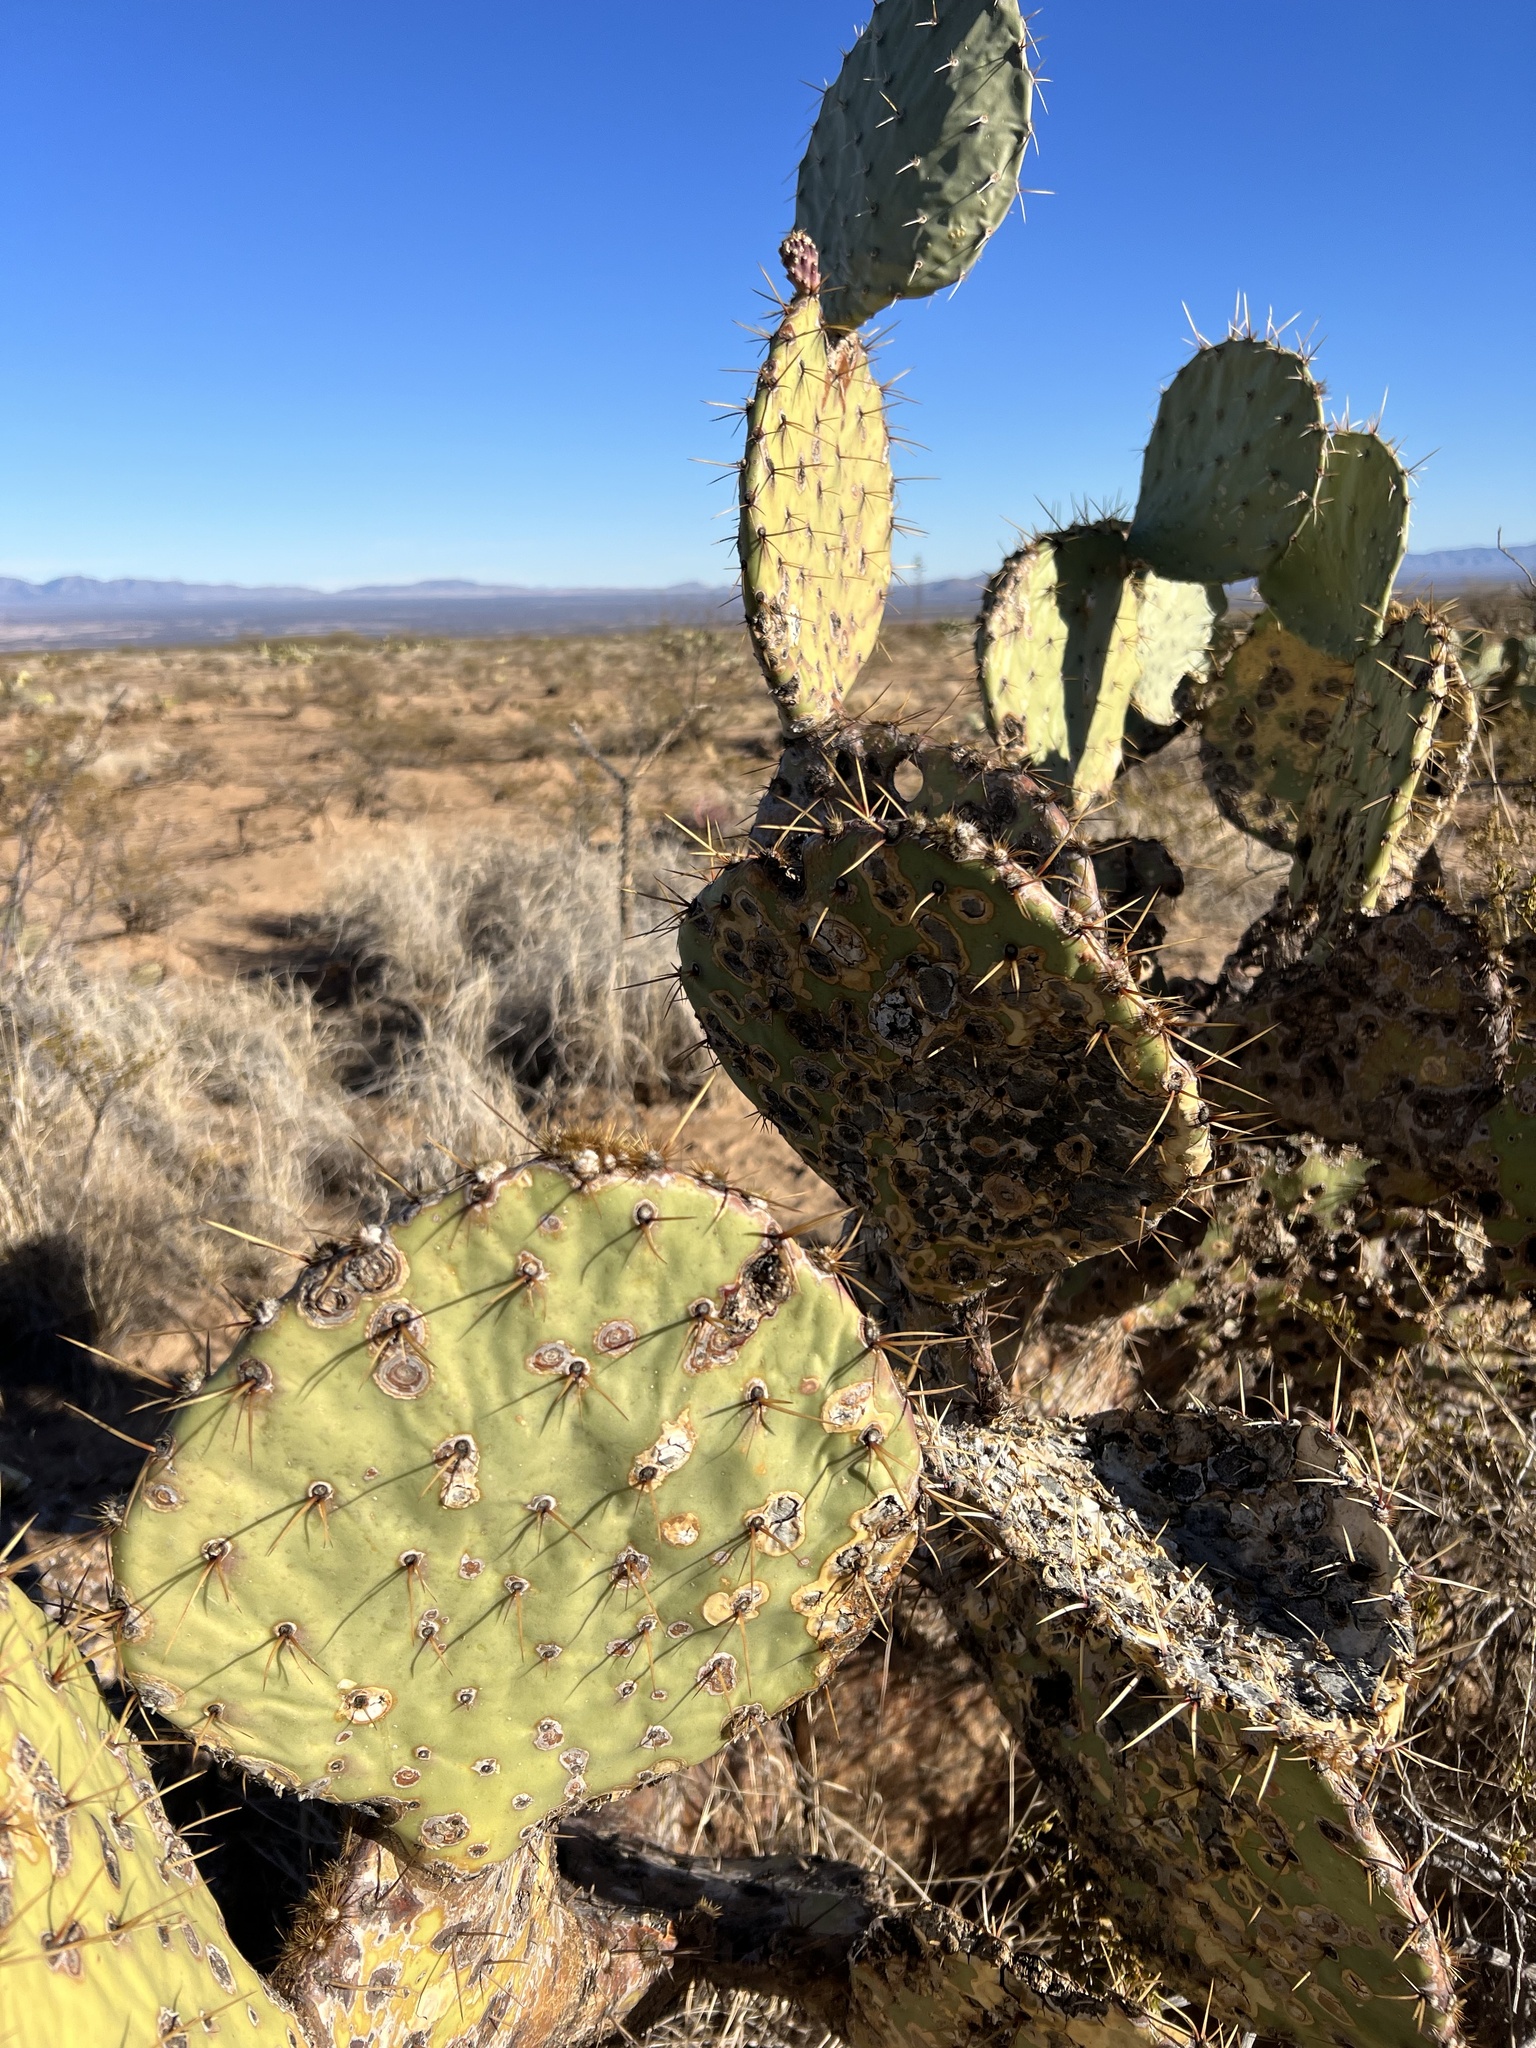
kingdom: Plantae
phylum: Tracheophyta
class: Magnoliopsida
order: Caryophyllales
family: Cactaceae
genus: Opuntia
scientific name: Opuntia engelmannii
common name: Cactus-apple
